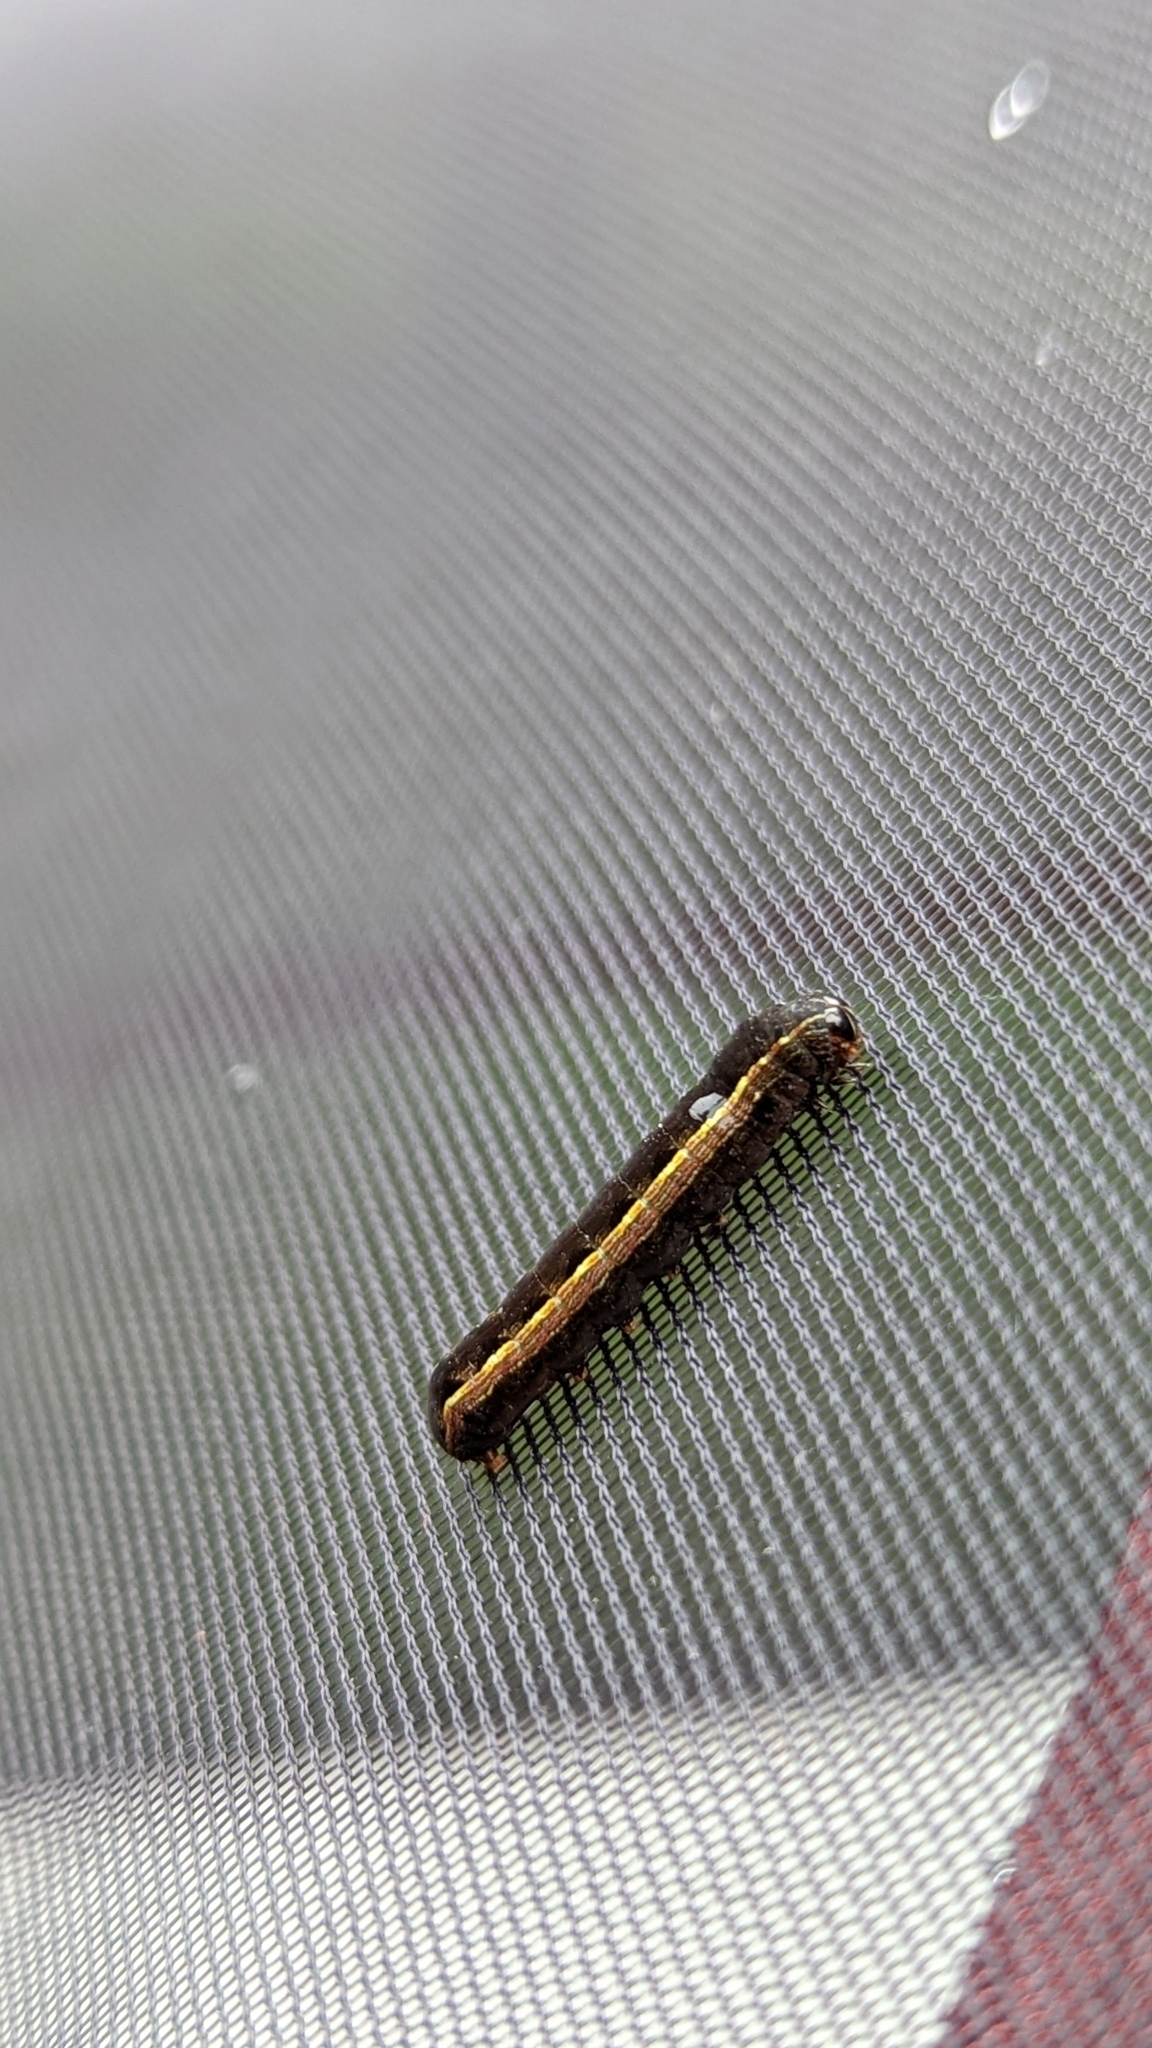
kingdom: Animalia
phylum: Arthropoda
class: Insecta
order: Lepidoptera
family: Noctuidae
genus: Spodoptera
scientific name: Spodoptera ornithogalli
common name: Yellow-striped armyworm
